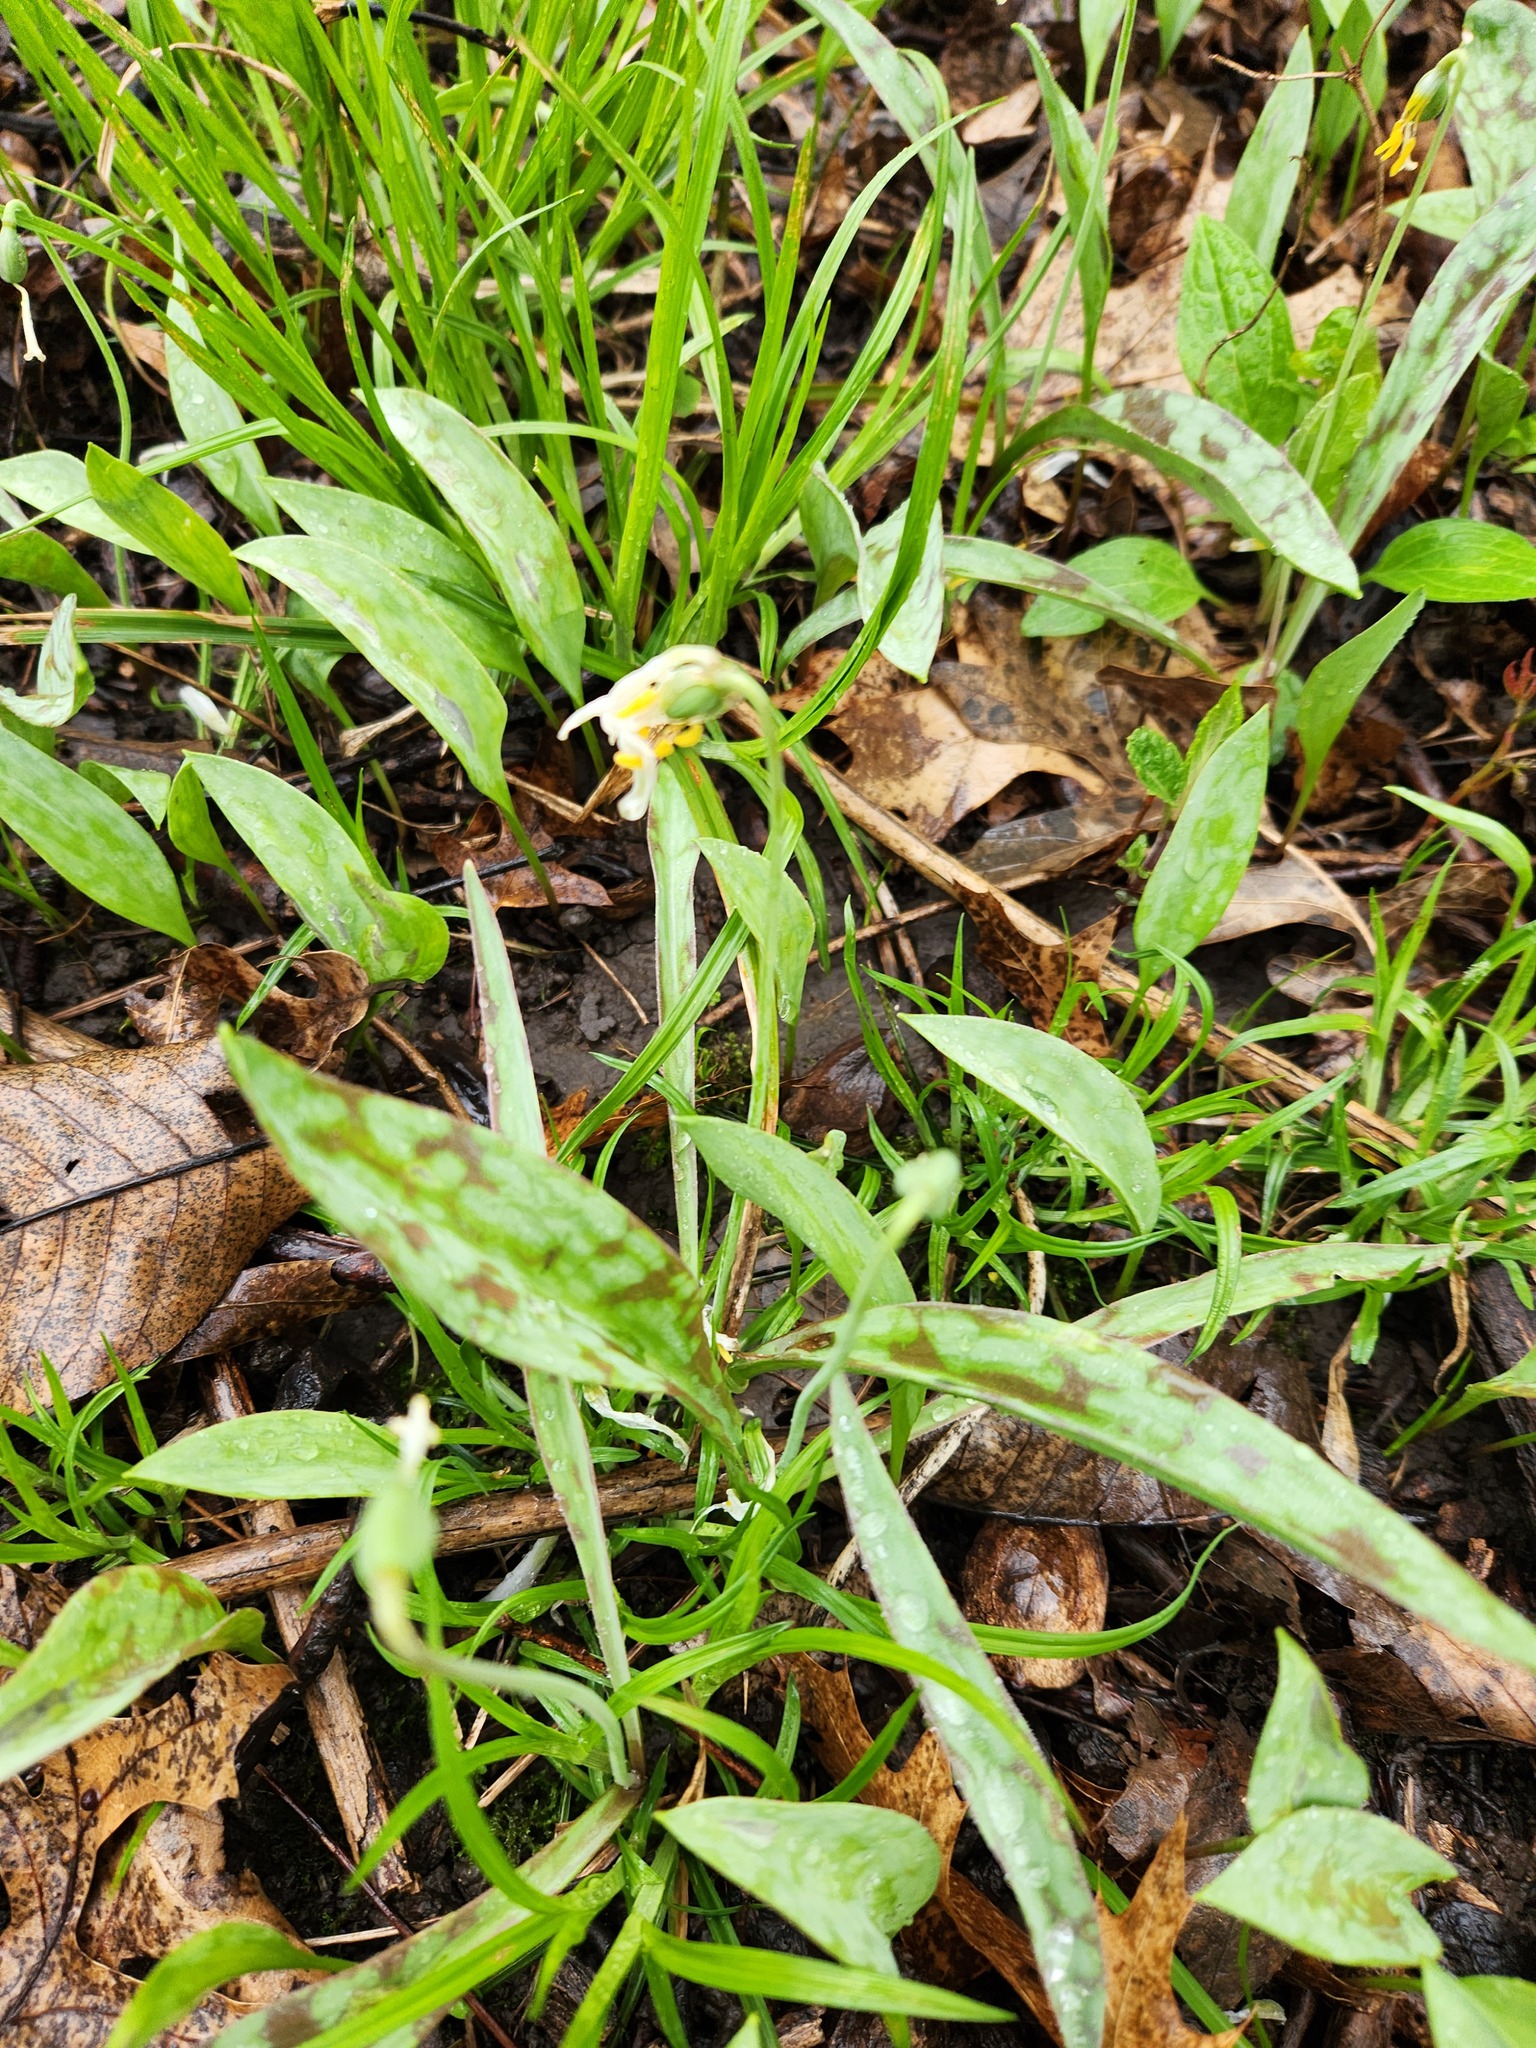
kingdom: Plantae
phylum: Tracheophyta
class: Liliopsida
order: Liliales
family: Liliaceae
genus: Erythronium
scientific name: Erythronium albidum
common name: White trout-lily
